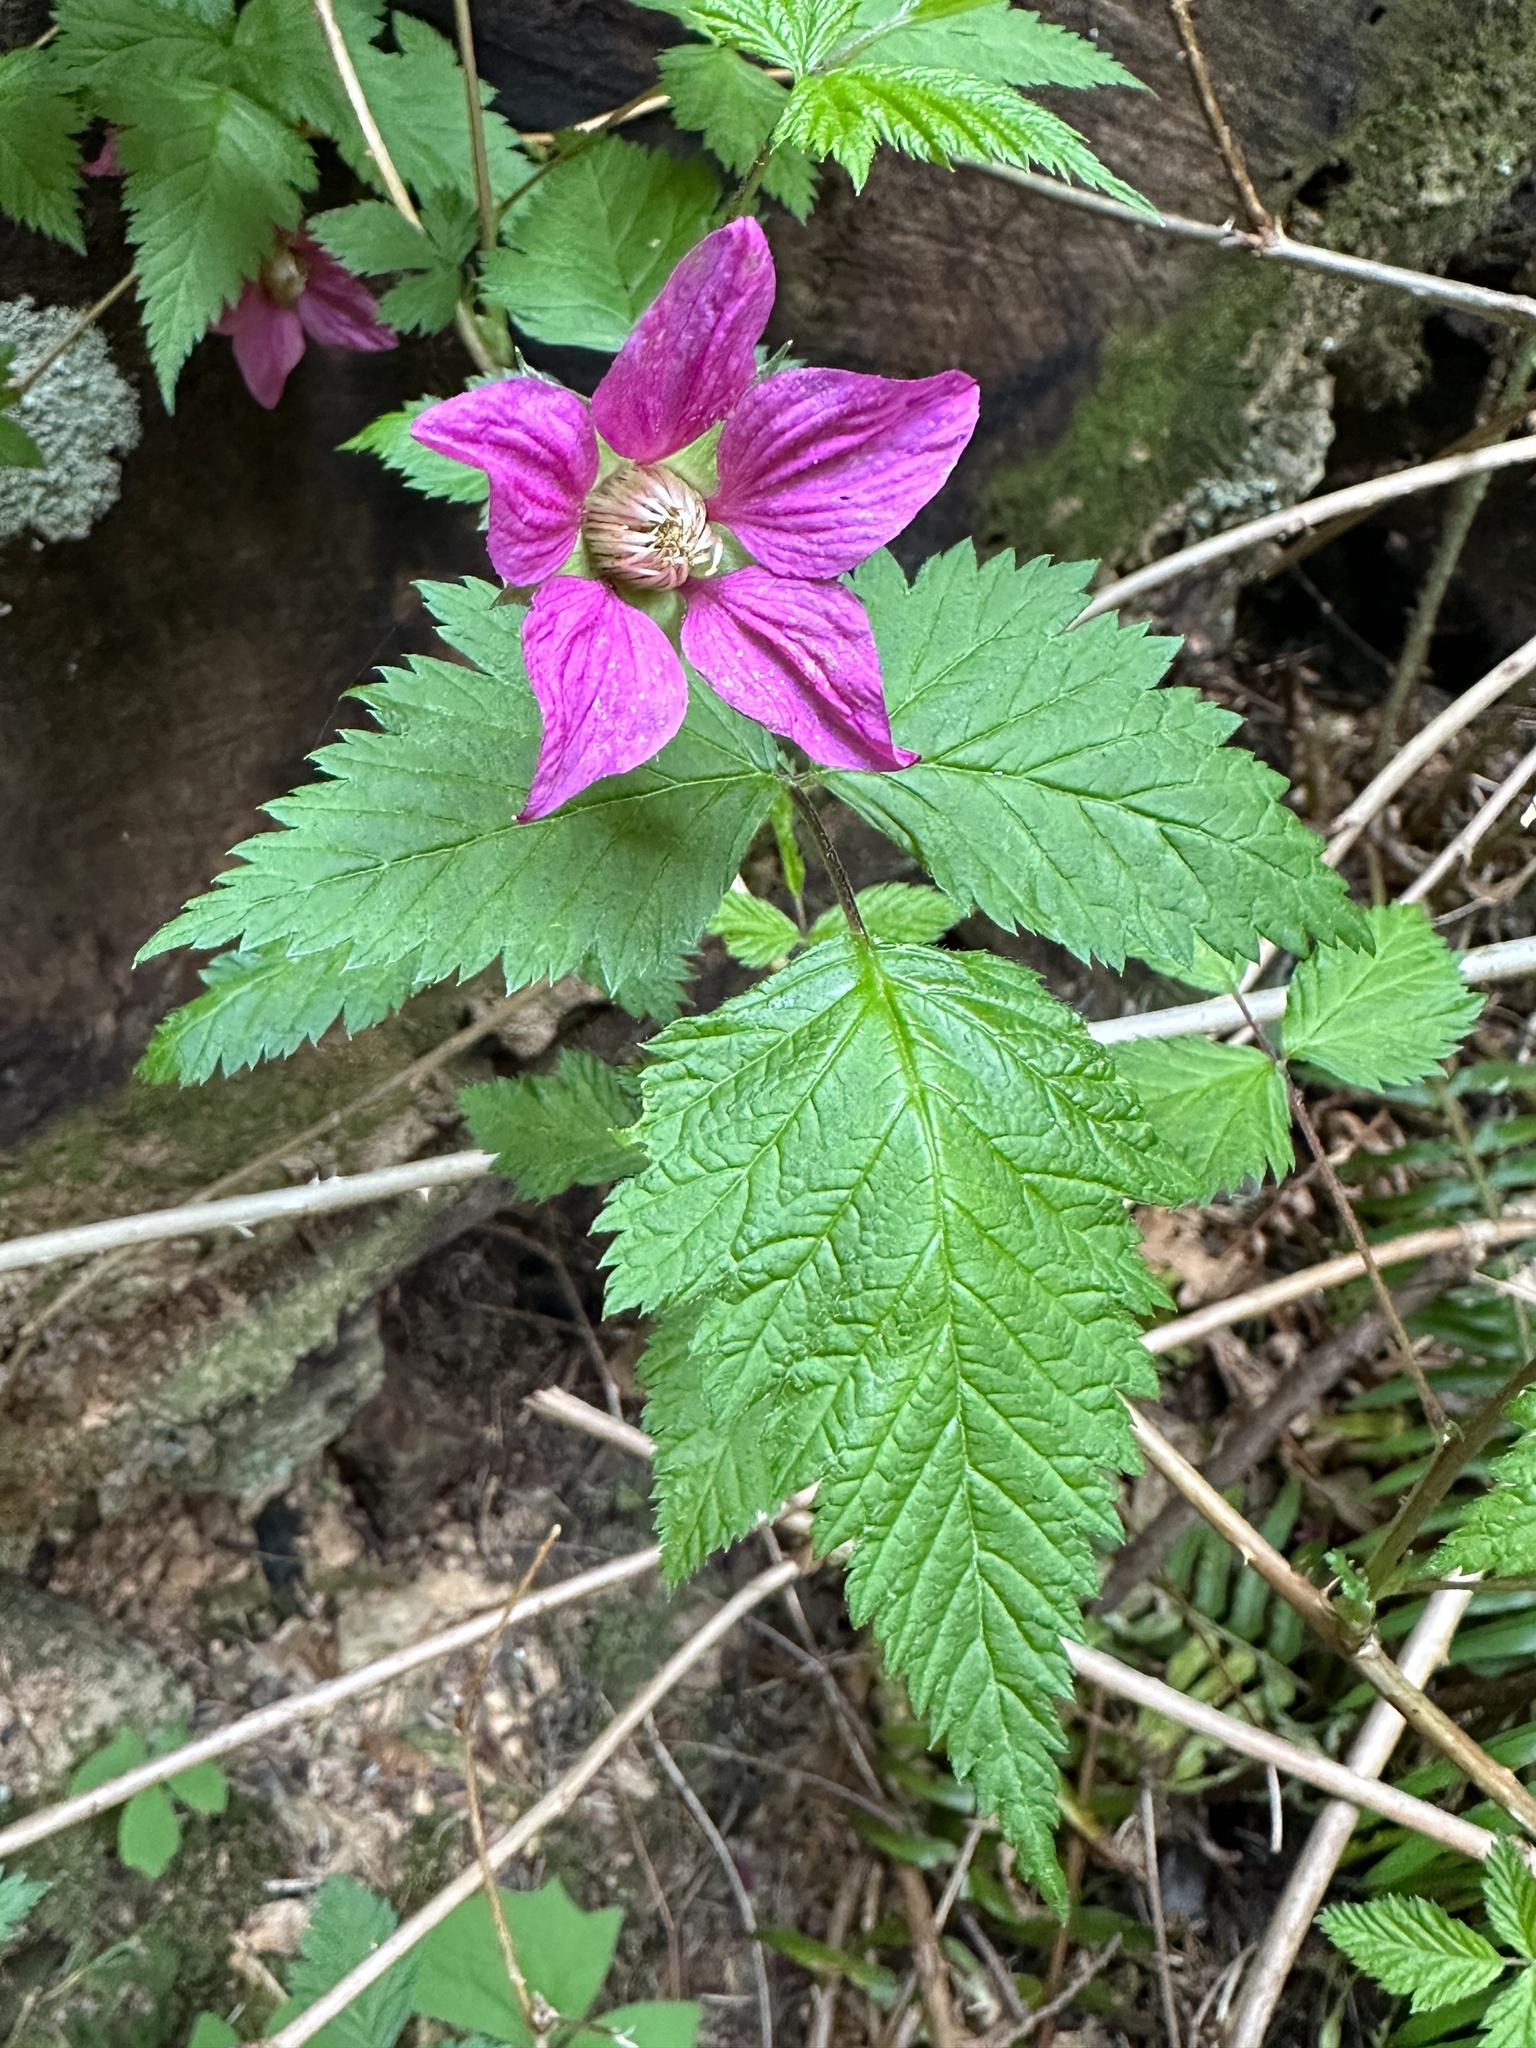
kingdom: Plantae
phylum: Tracheophyta
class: Magnoliopsida
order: Rosales
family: Rosaceae
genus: Rubus
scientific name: Rubus spectabilis
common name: Salmonberry
